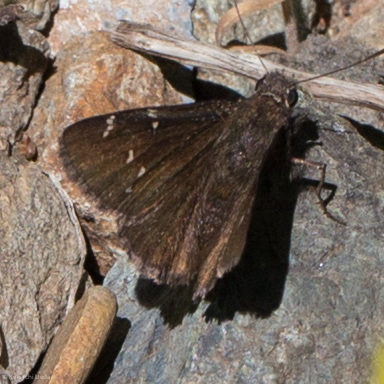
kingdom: Animalia
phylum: Arthropoda
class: Insecta
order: Lepidoptera
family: Hesperiidae
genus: Thorybes
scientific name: Thorybes pylades
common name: Northern cloudywing
